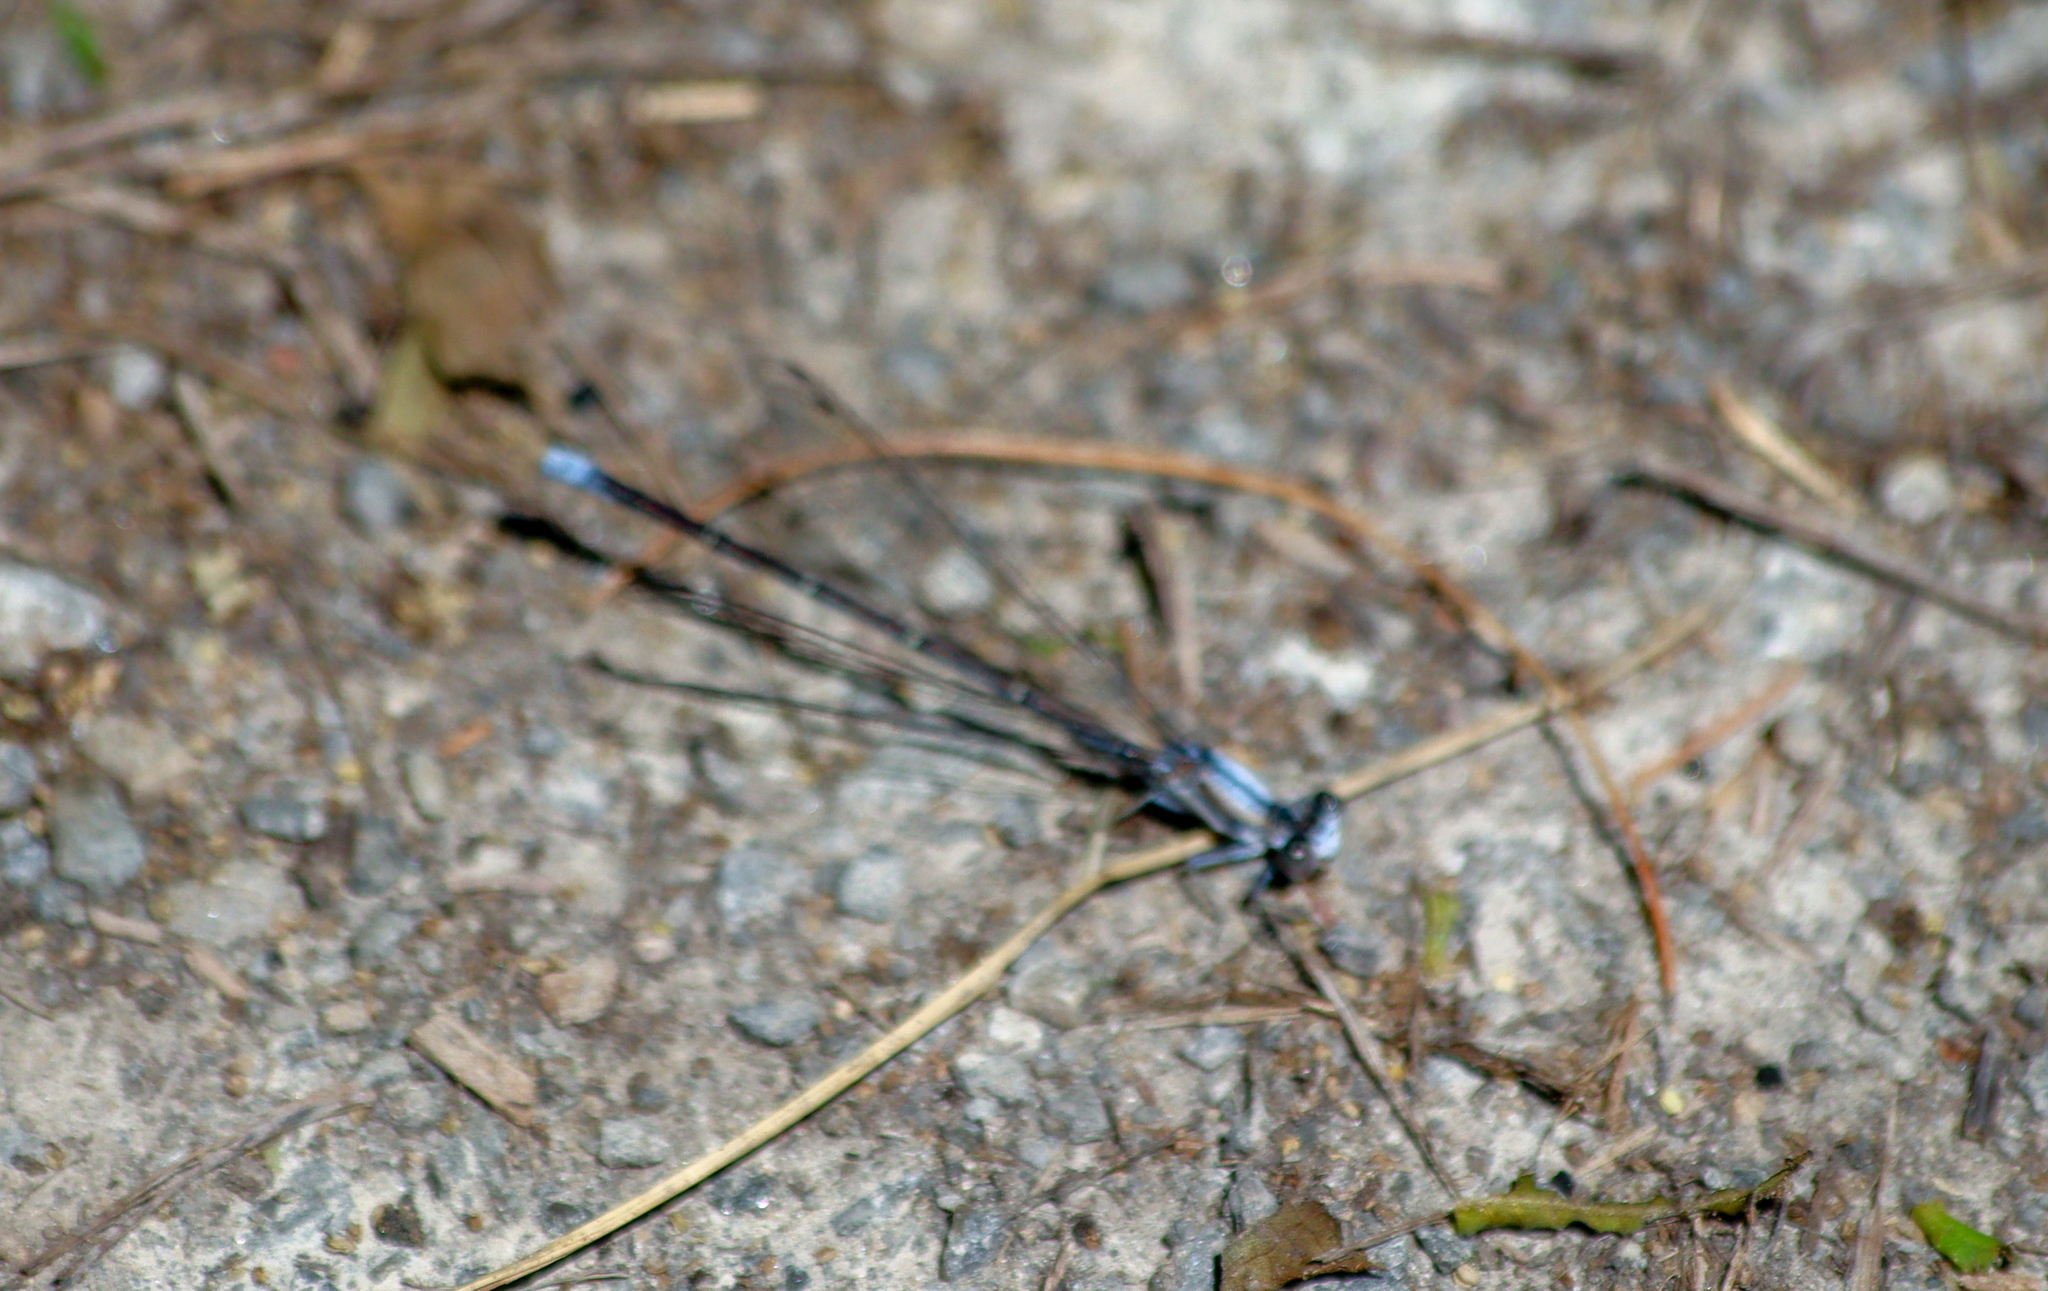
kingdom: Animalia
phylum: Arthropoda
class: Insecta
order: Odonata
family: Coenagrionidae
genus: Argia
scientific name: Argia moesta
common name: Powdered dancer
